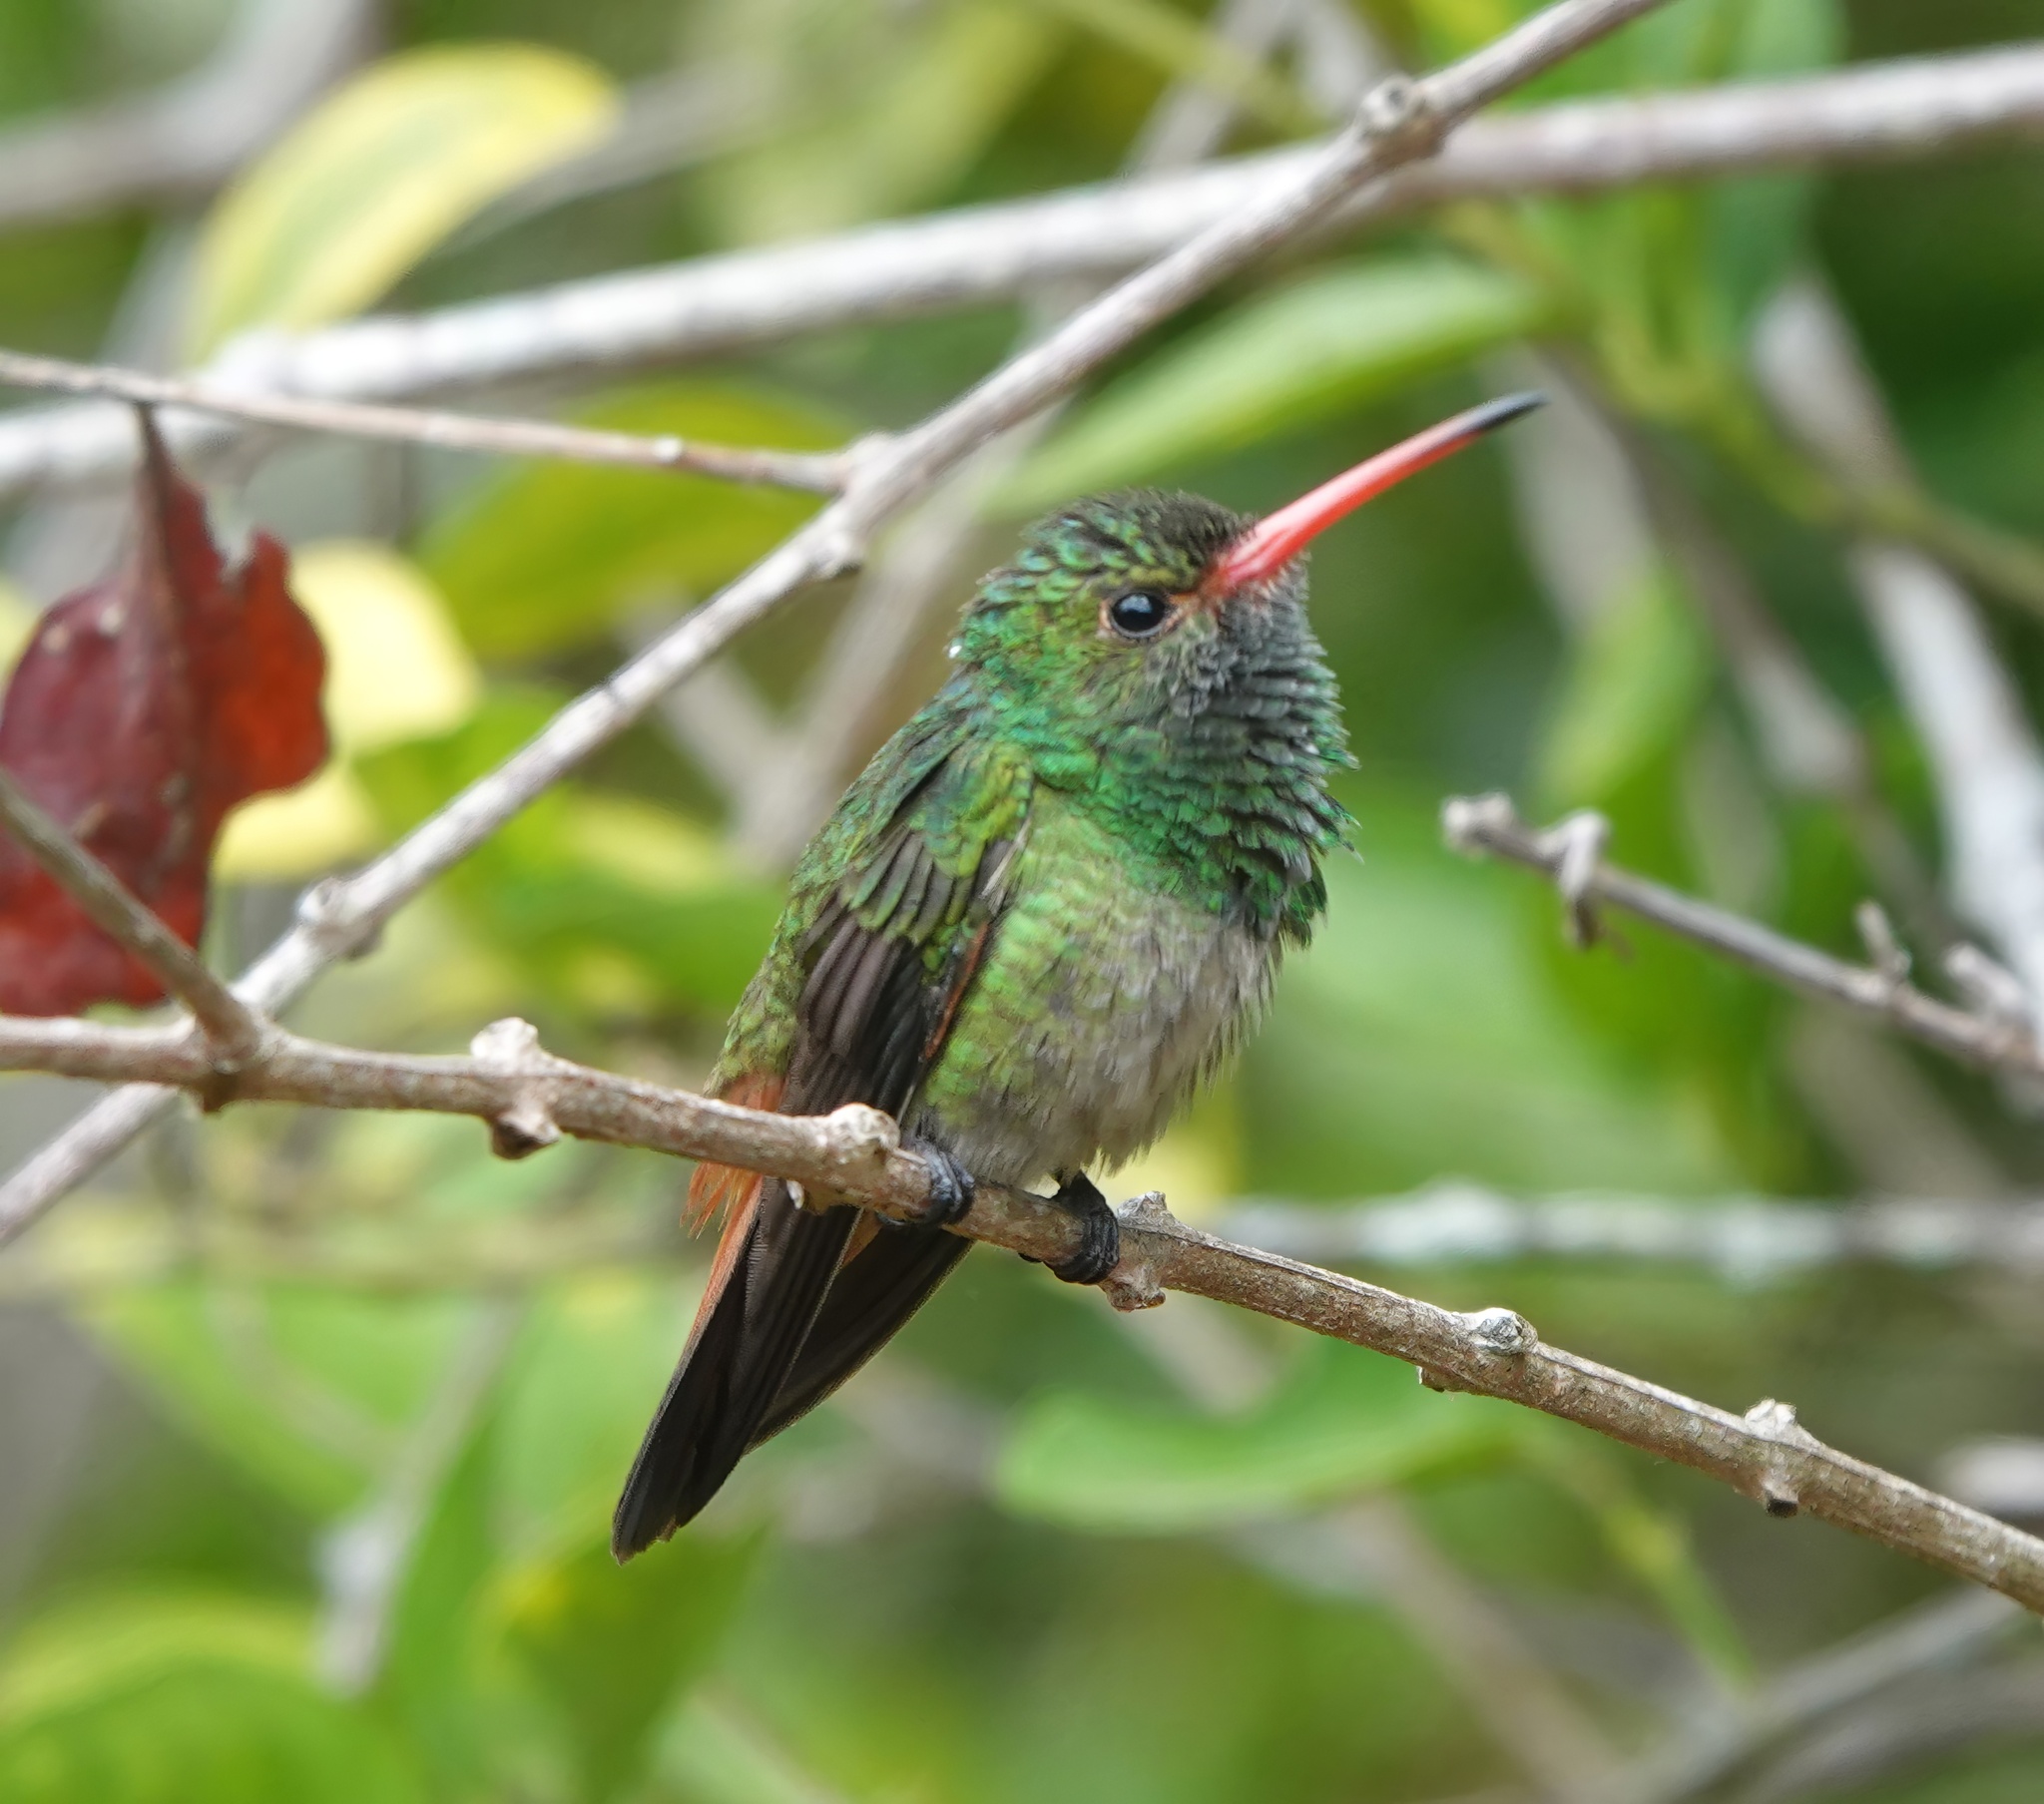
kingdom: Animalia
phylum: Chordata
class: Aves
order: Apodiformes
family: Trochilidae
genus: Amazilia
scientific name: Amazilia tzacatl
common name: Rufous-tailed hummingbird
